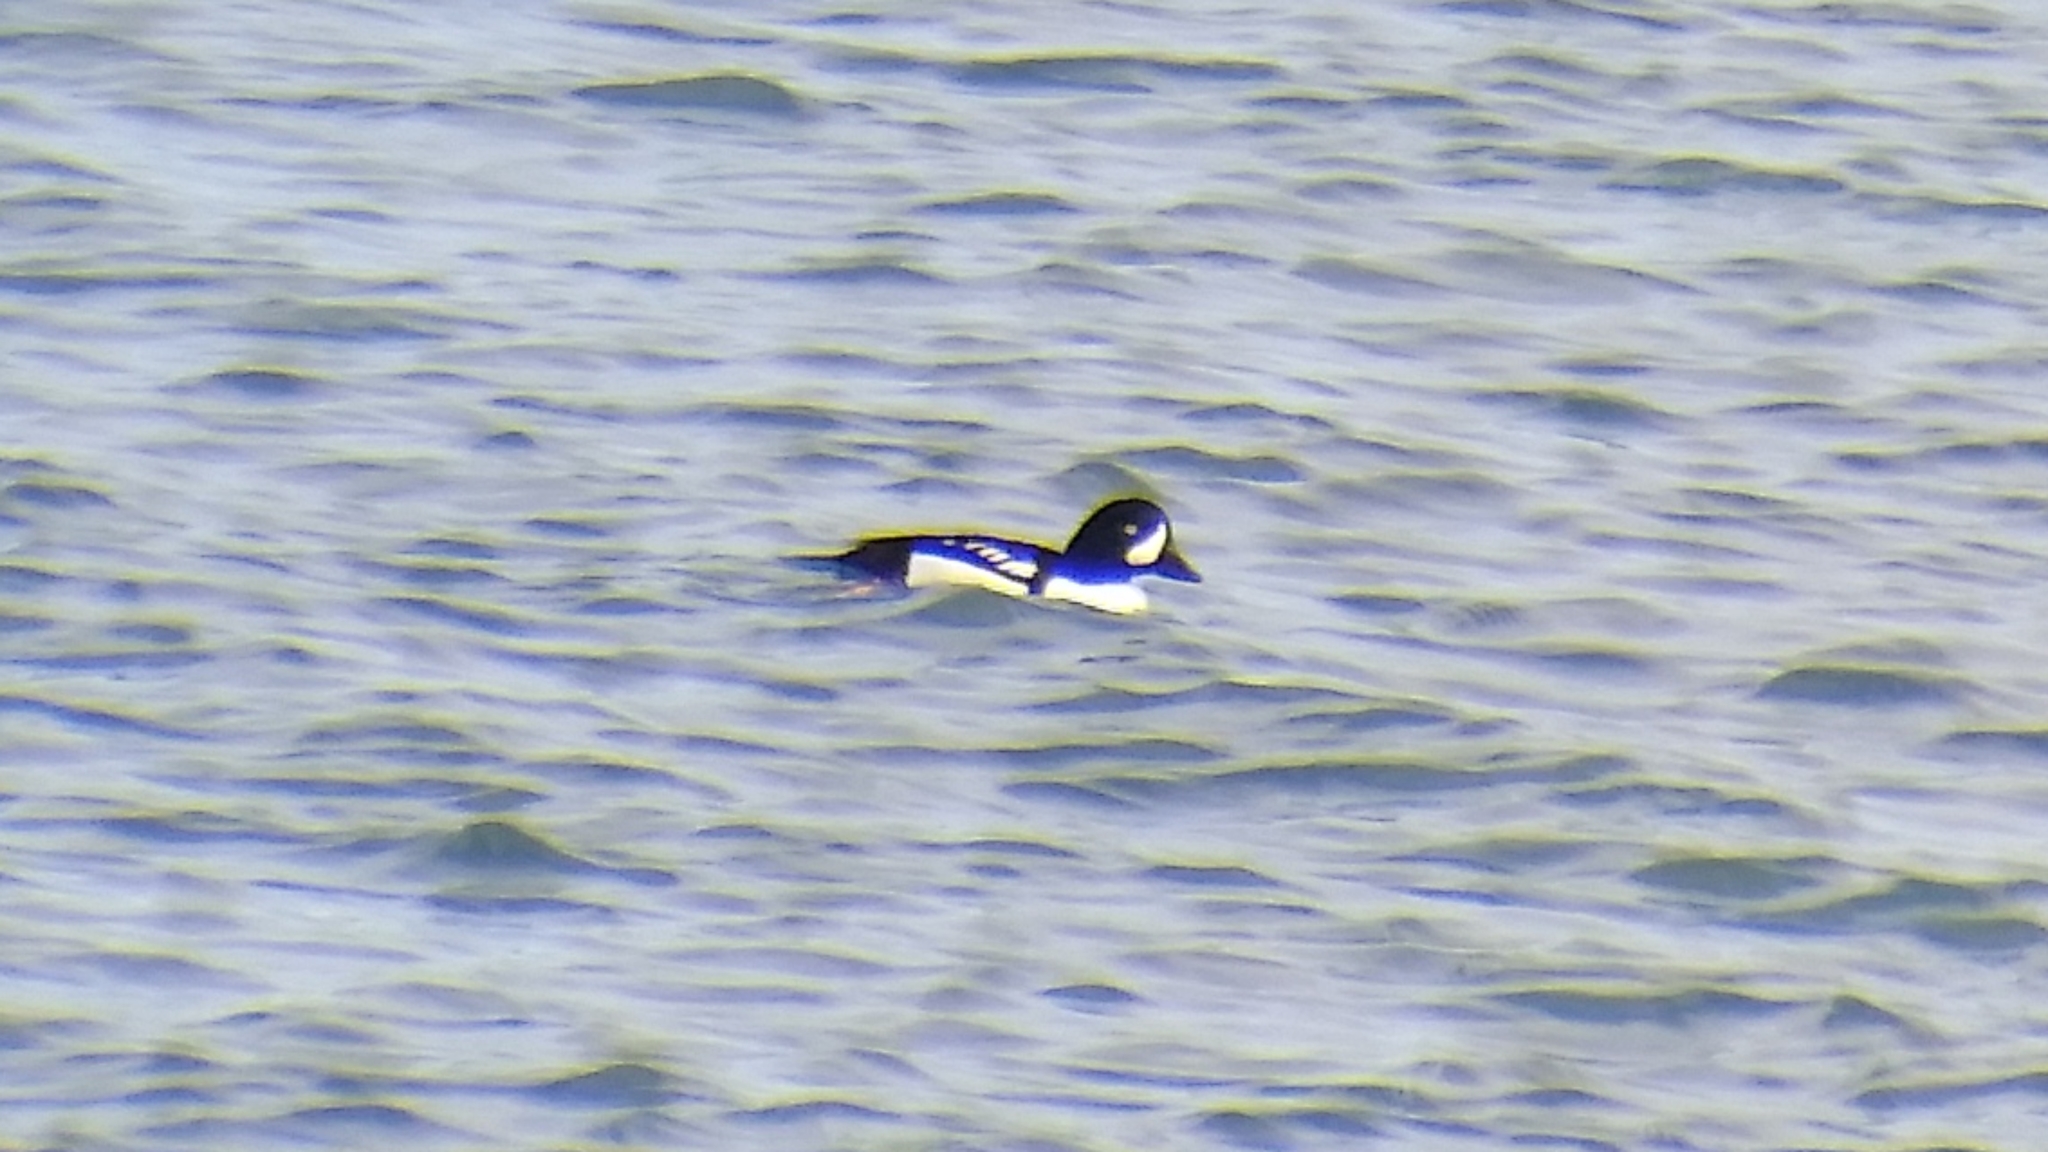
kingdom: Animalia
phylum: Chordata
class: Aves
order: Anseriformes
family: Anatidae
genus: Bucephala
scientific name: Bucephala islandica
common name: Barrow's goldeneye
